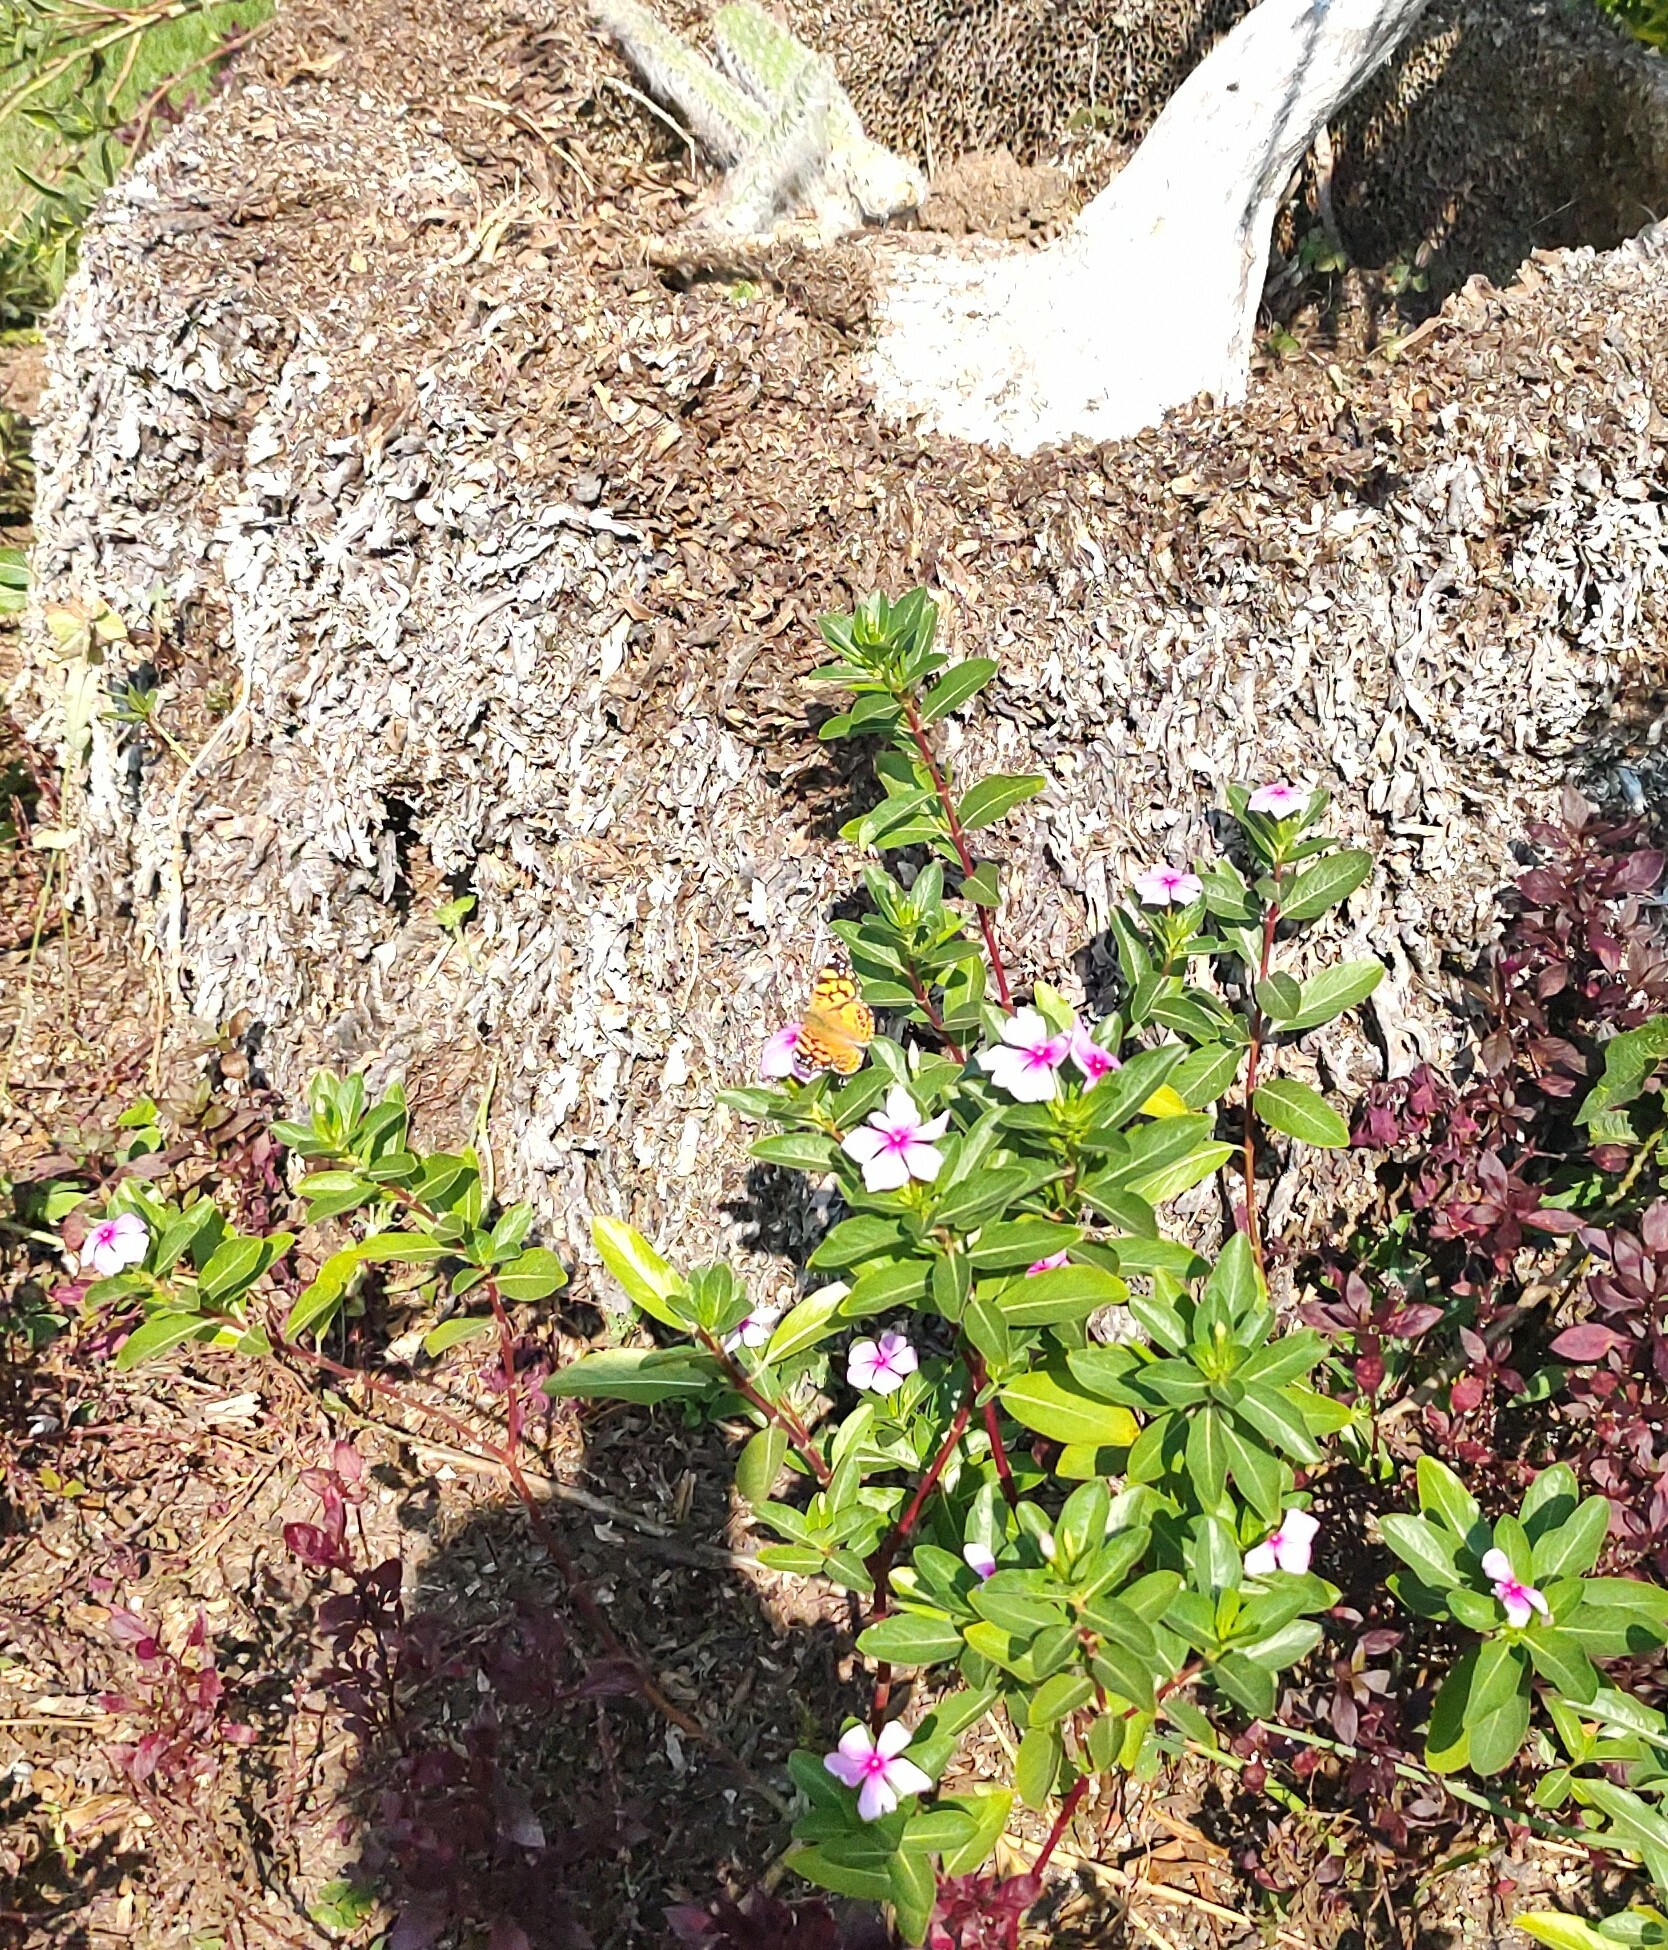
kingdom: Animalia
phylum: Arthropoda
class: Insecta
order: Lepidoptera
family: Nymphalidae
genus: Vanessa
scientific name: Vanessa annabella
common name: West coast lady
